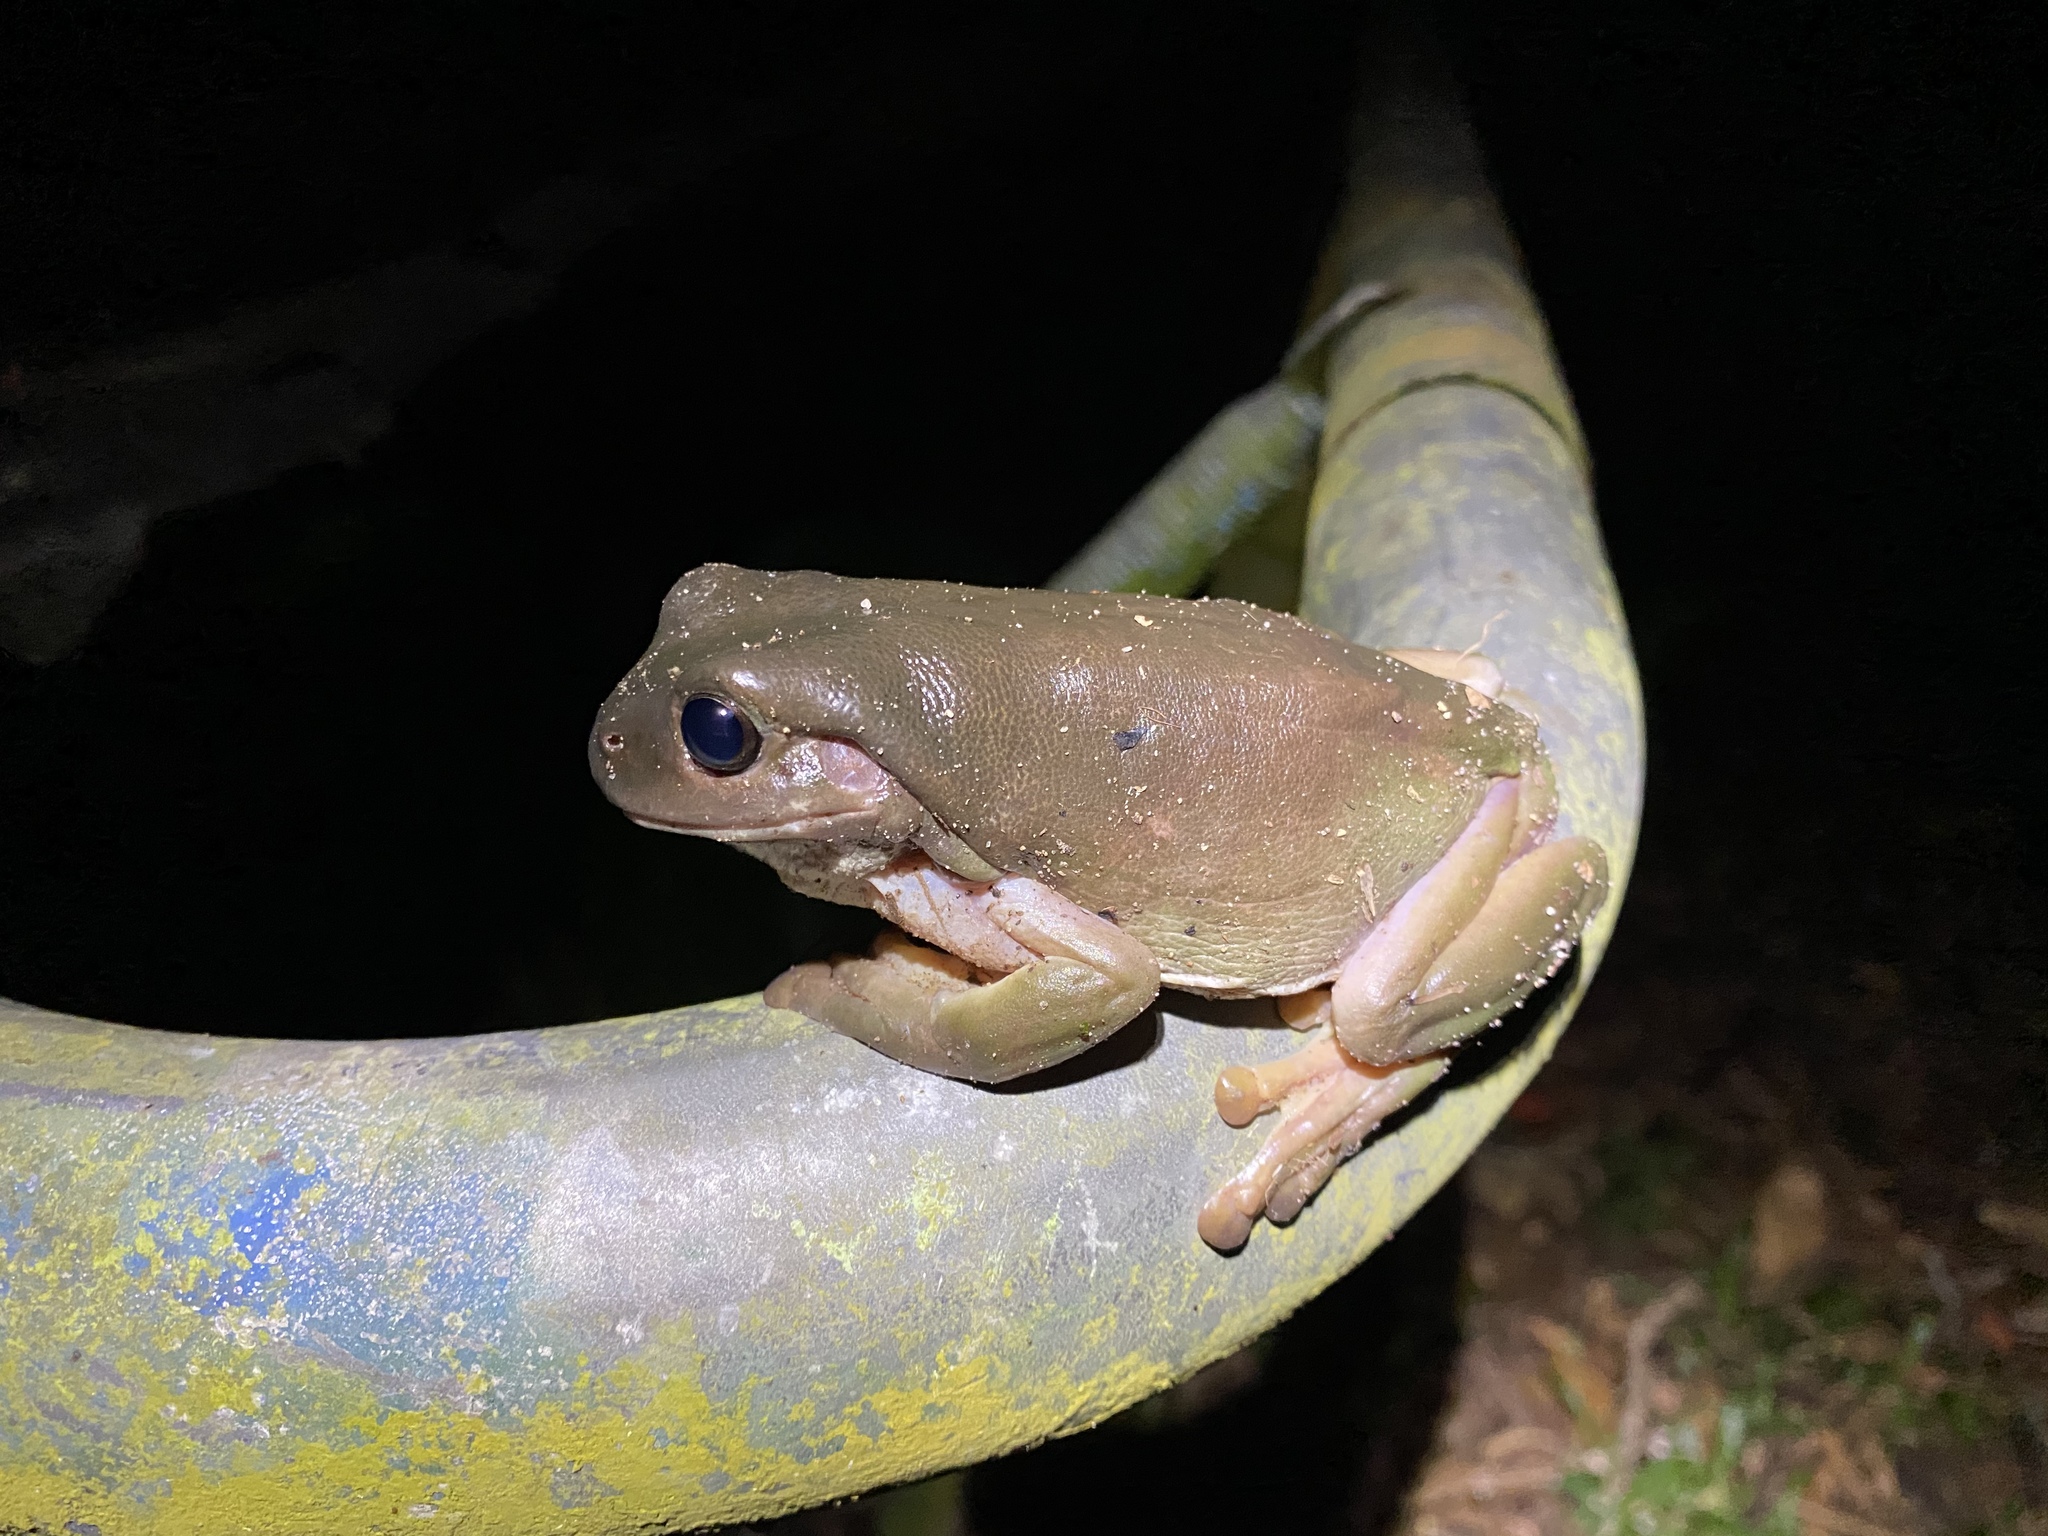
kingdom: Animalia
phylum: Chordata
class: Amphibia
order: Anura
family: Pelodryadidae
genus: Ranoidea
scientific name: Ranoidea caerulea
